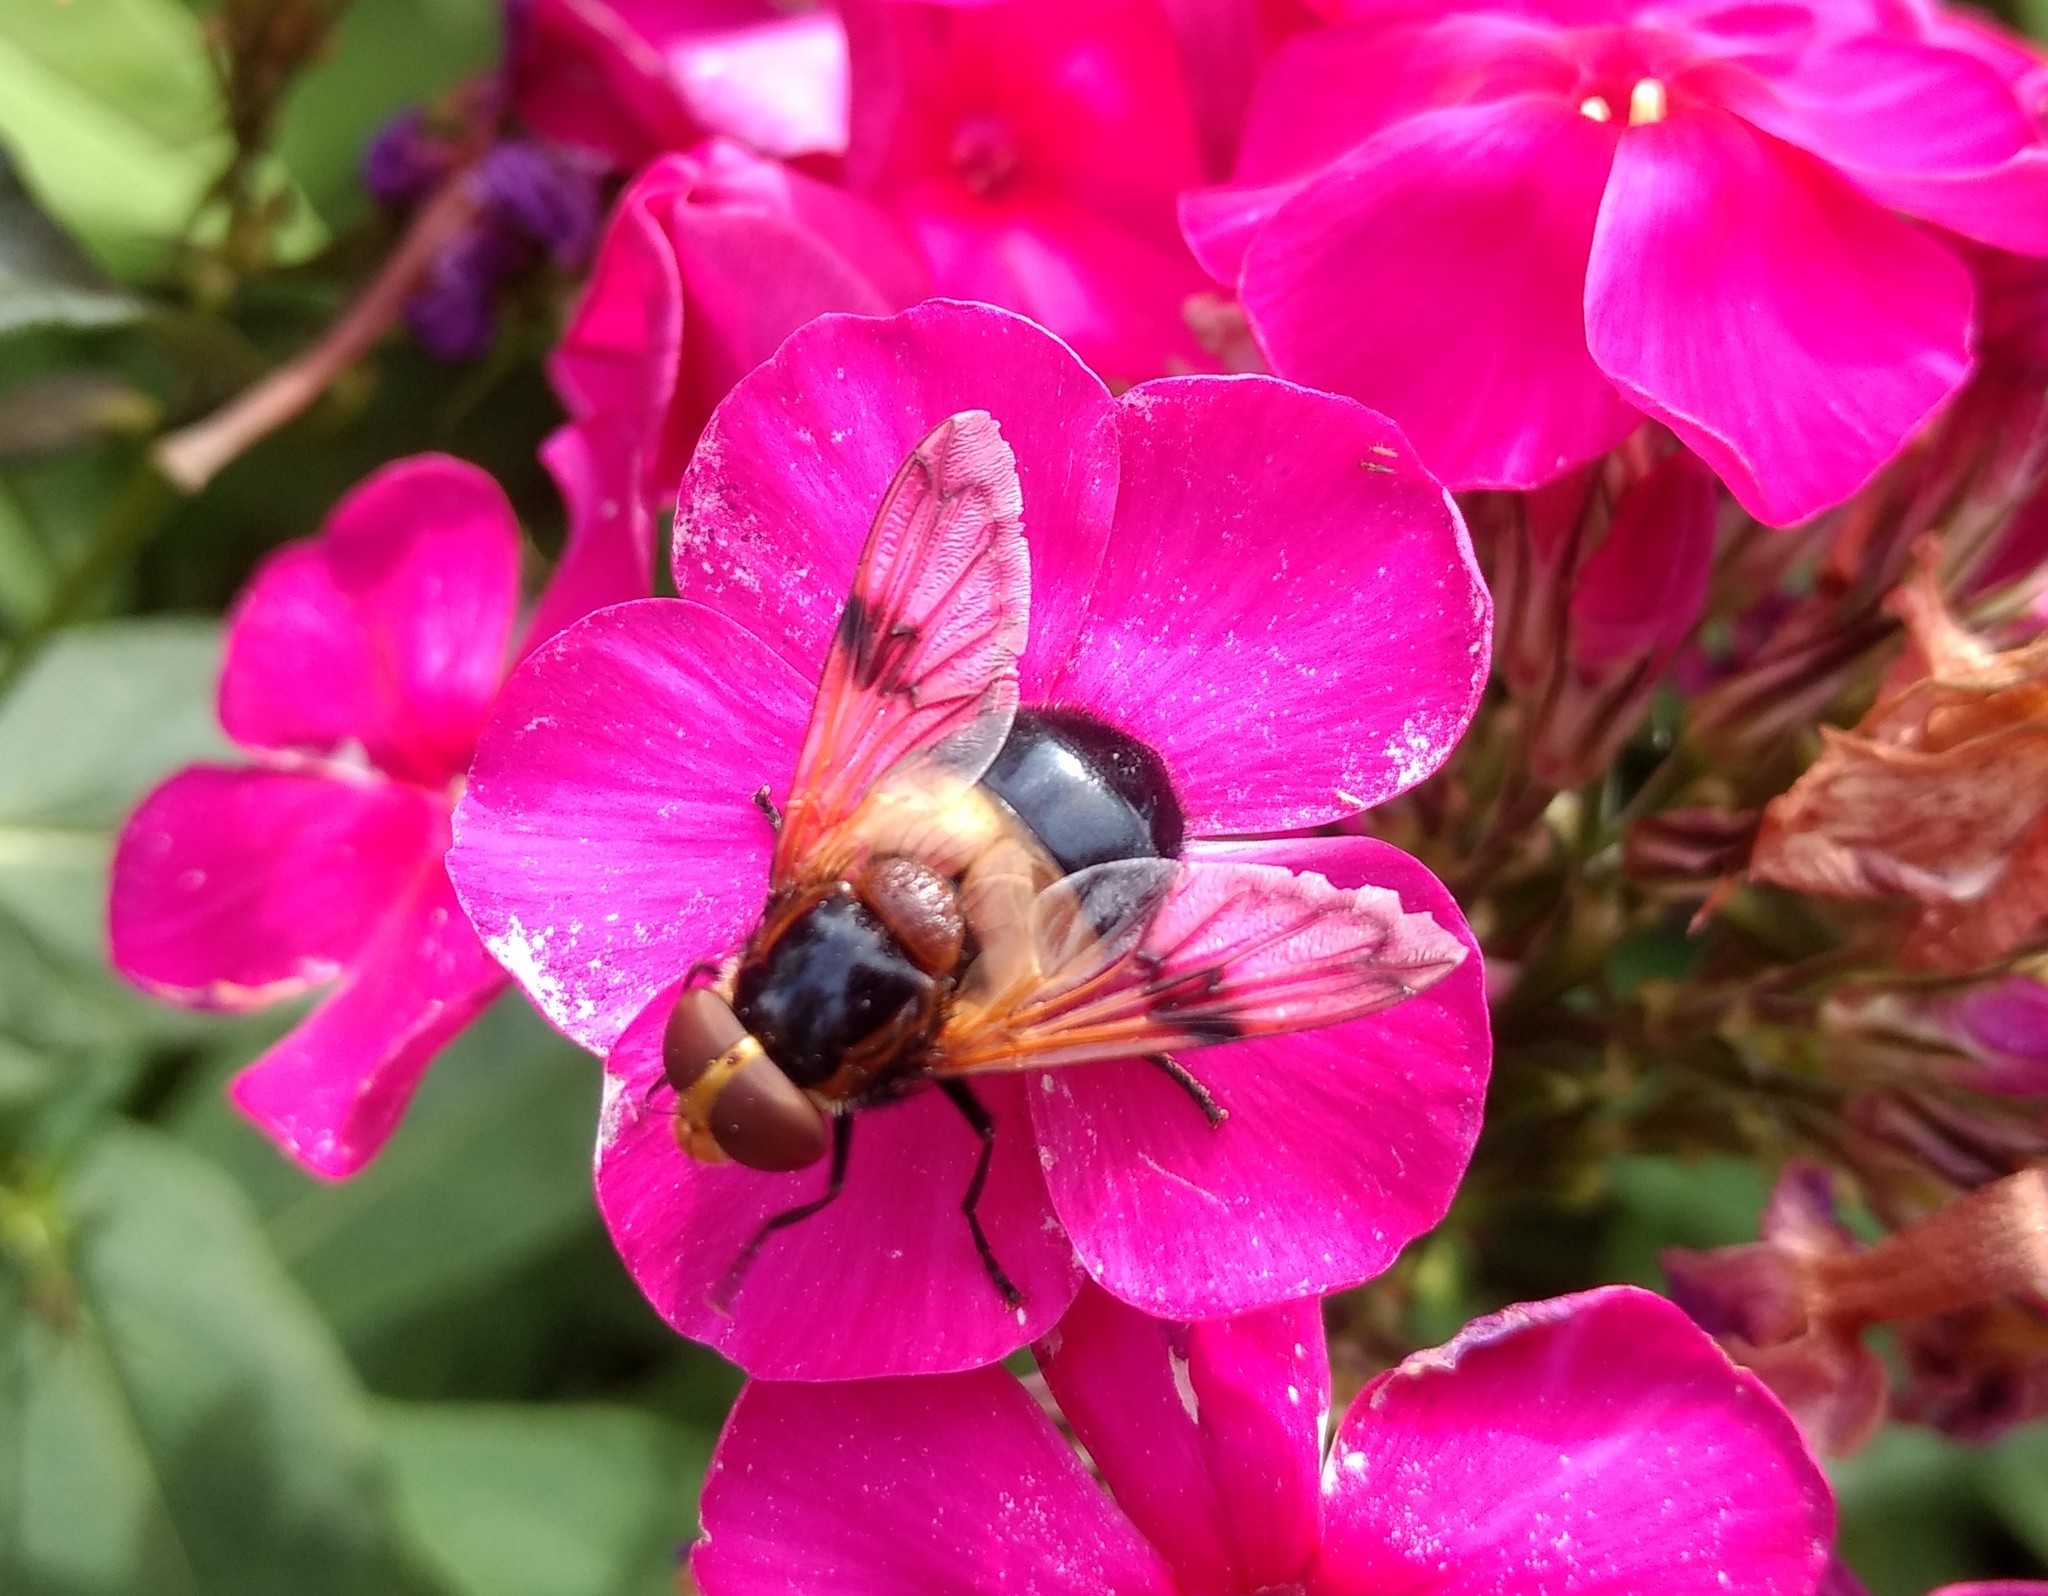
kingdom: Animalia
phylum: Arthropoda
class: Insecta
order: Diptera
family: Syrphidae
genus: Volucella
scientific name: Volucella pellucens
